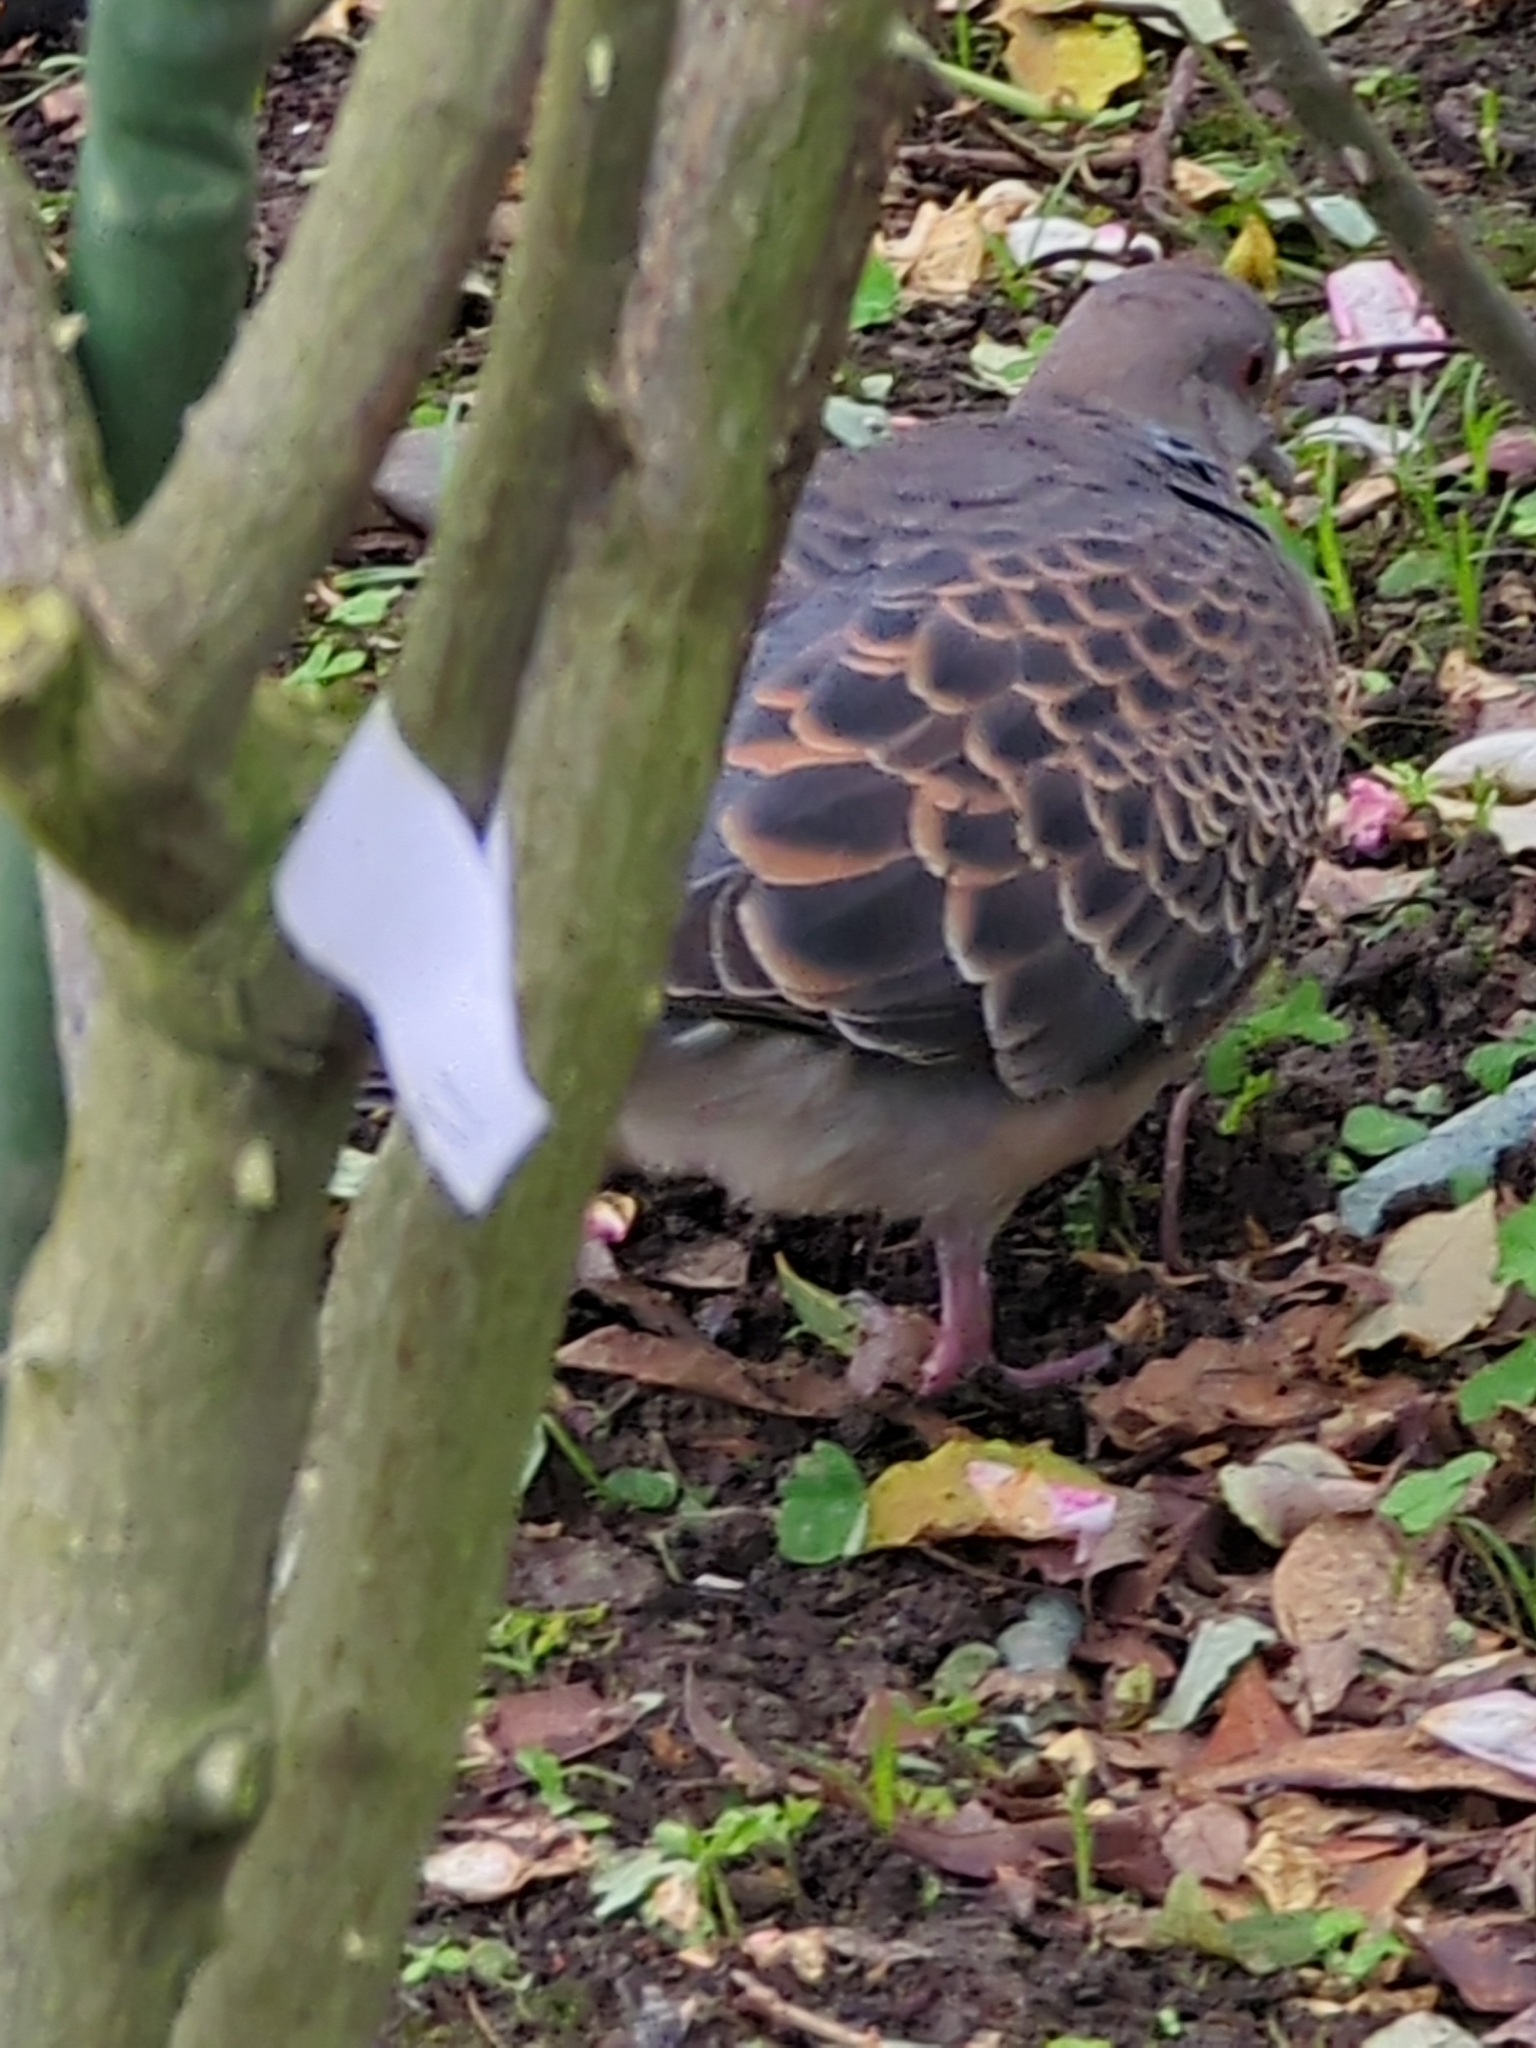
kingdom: Animalia
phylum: Chordata
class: Aves
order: Columbiformes
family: Columbidae
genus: Streptopelia
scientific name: Streptopelia orientalis
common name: Oriental turtle dove
